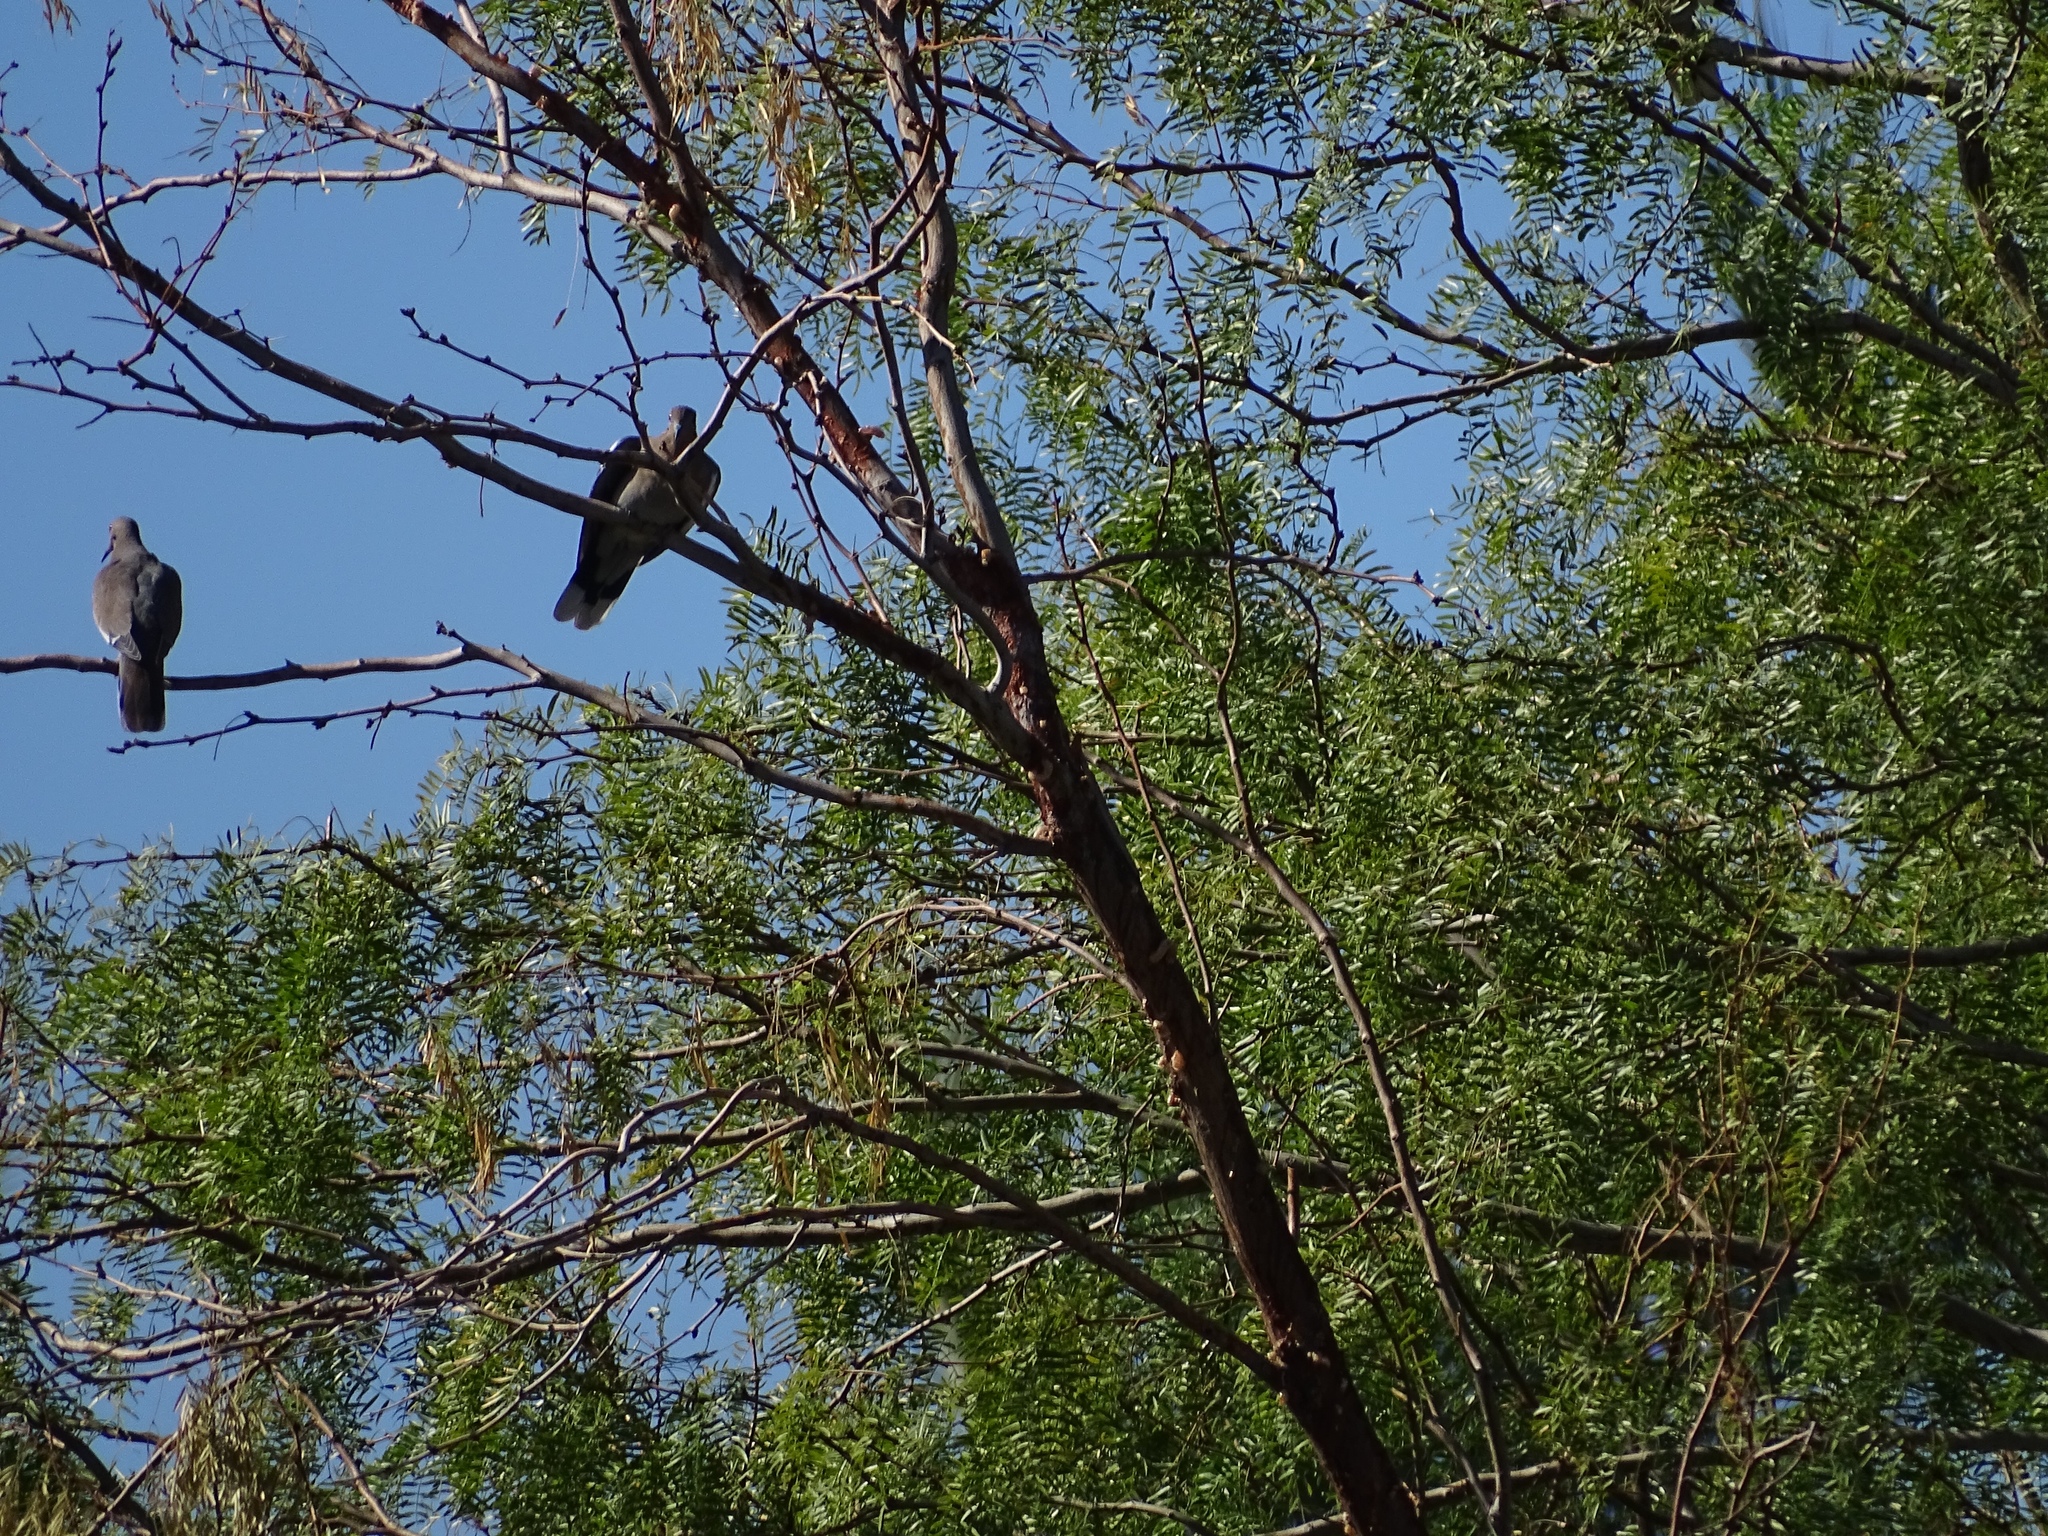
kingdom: Animalia
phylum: Chordata
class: Aves
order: Columbiformes
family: Columbidae
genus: Zenaida
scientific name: Zenaida asiatica
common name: White-winged dove
